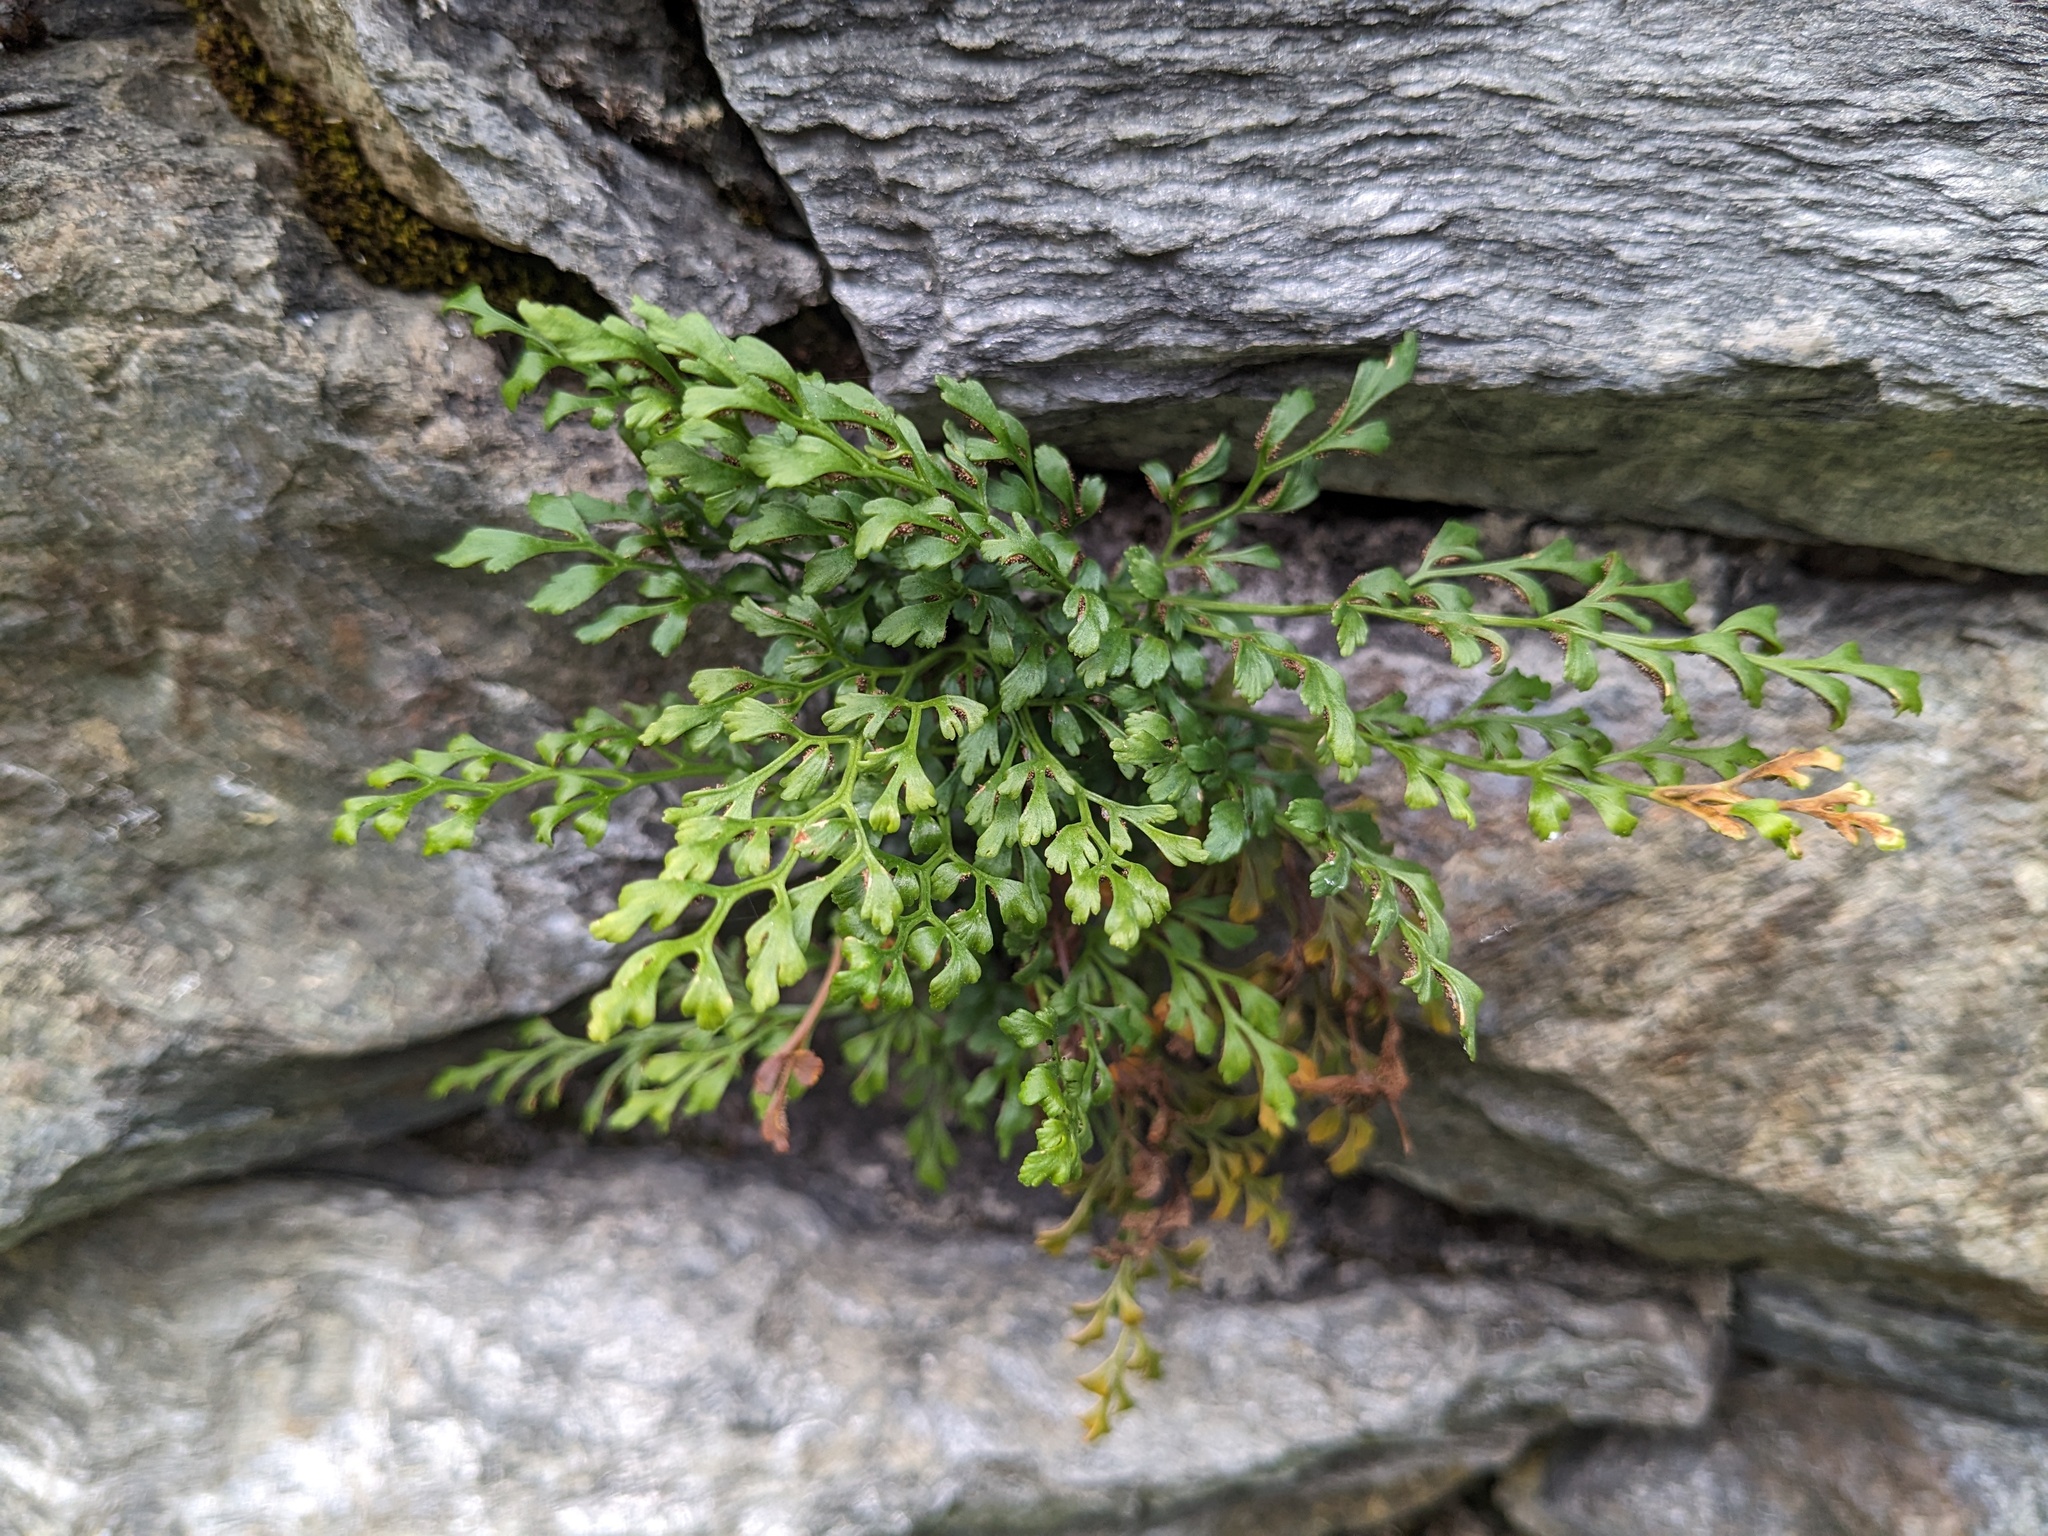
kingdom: Plantae
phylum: Tracheophyta
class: Polypodiopsida
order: Polypodiales
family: Aspleniaceae
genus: Asplenium
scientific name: Asplenium ruta-muraria
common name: Wall-rue
